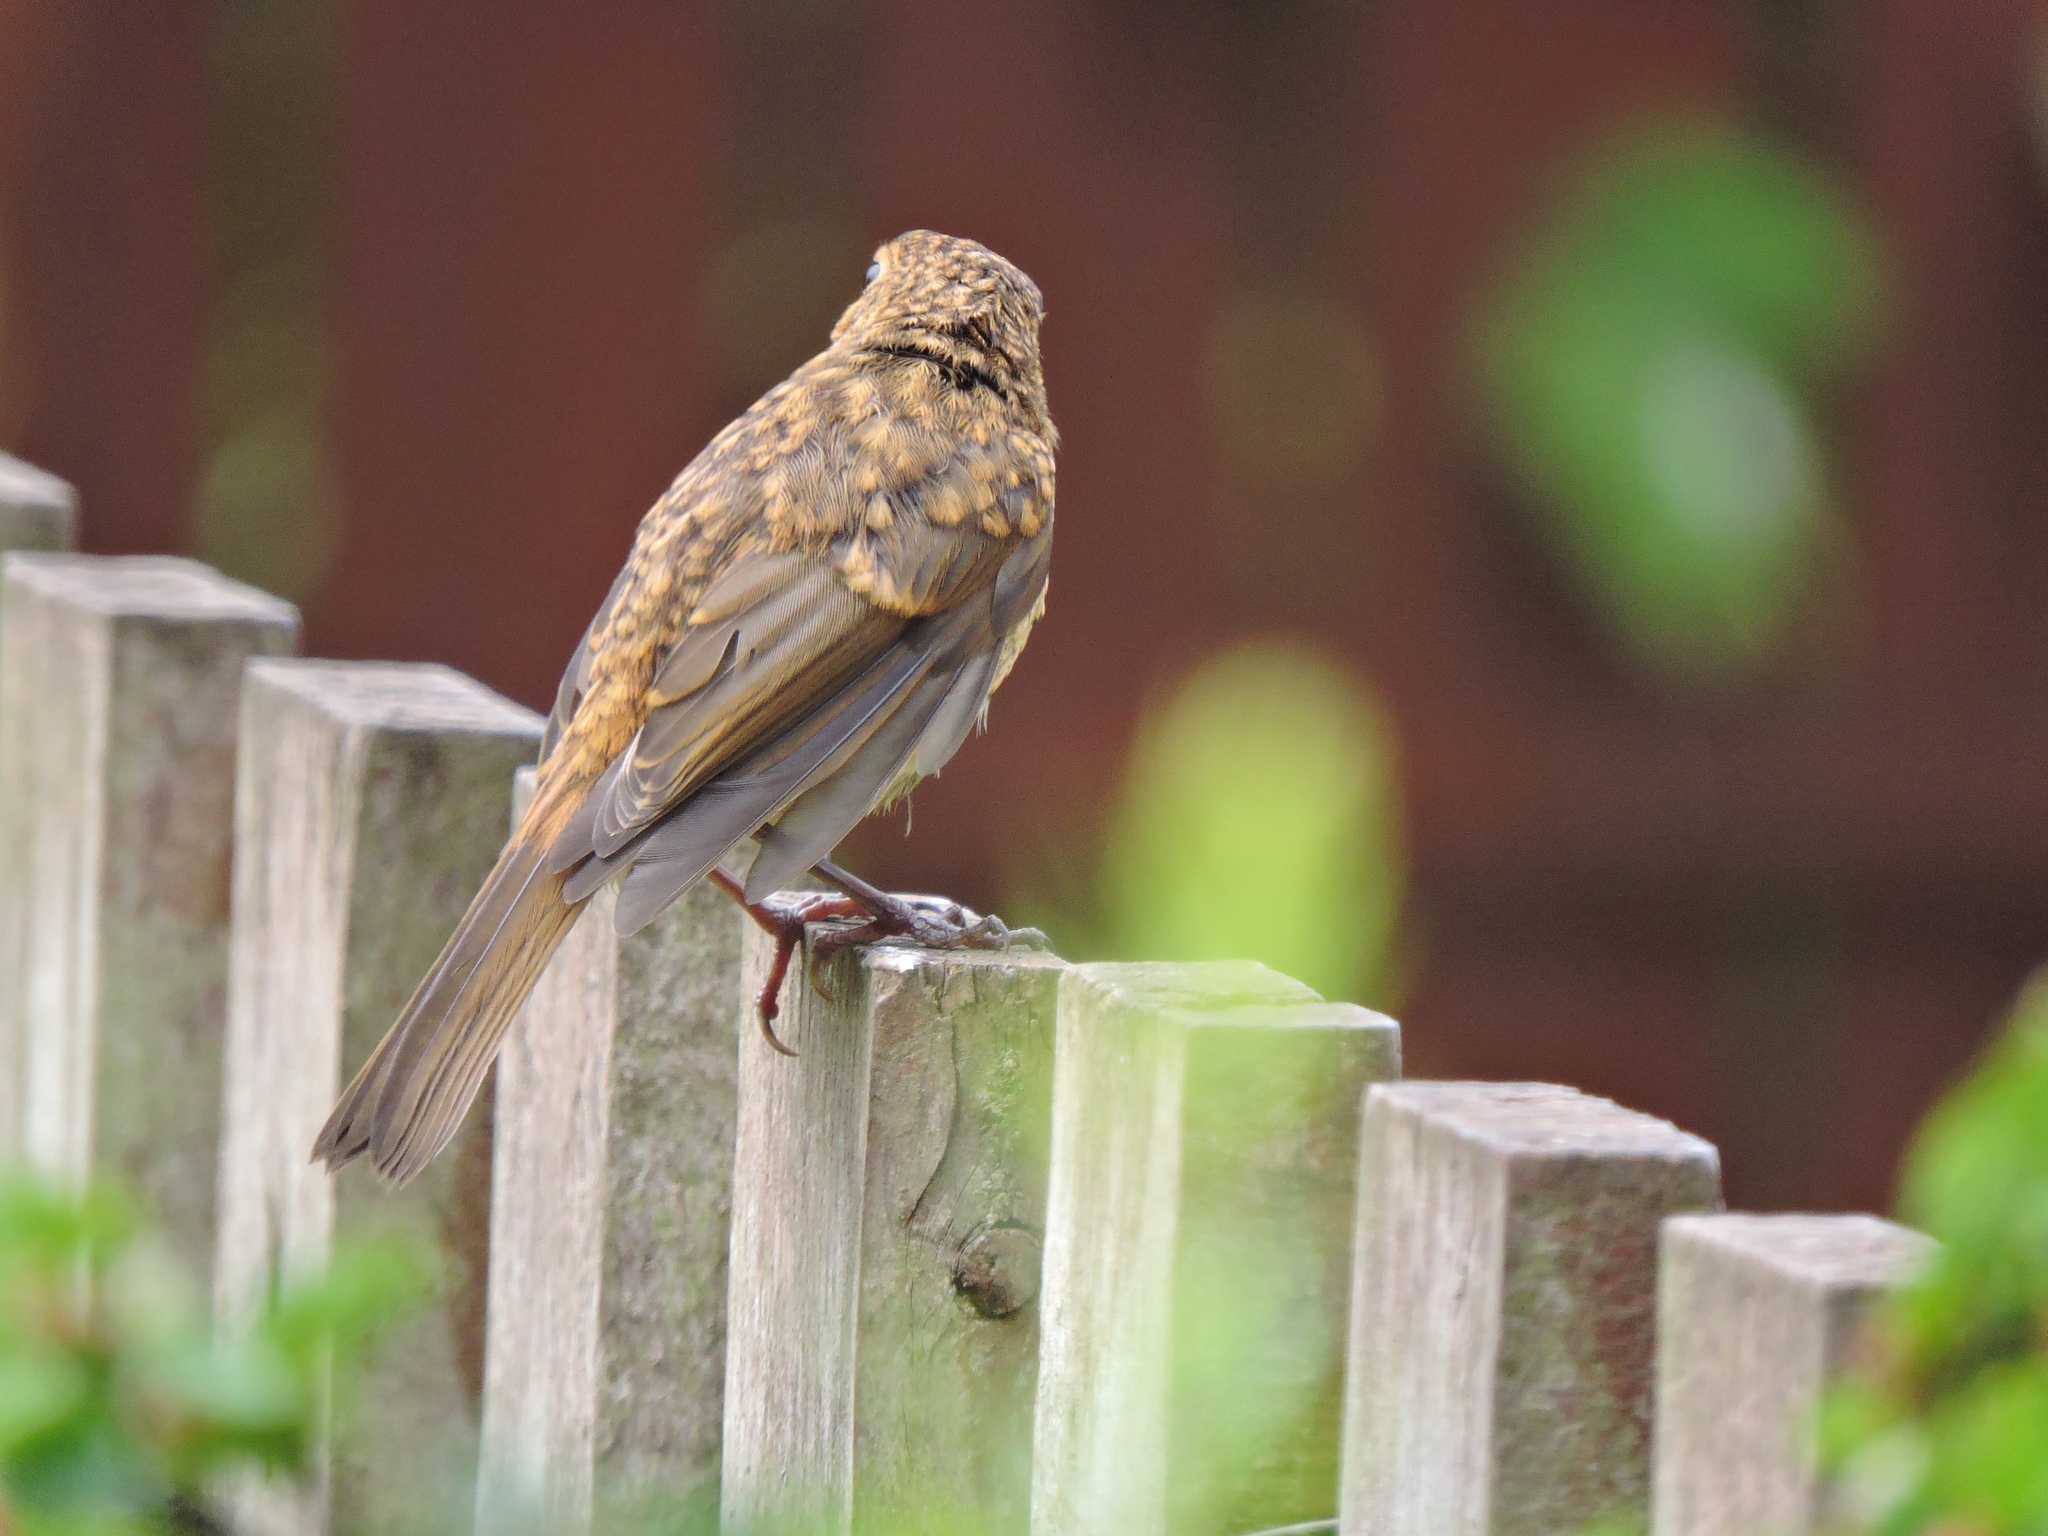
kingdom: Animalia
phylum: Chordata
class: Aves
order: Passeriformes
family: Muscicapidae
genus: Erithacus
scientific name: Erithacus rubecula
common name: European robin
